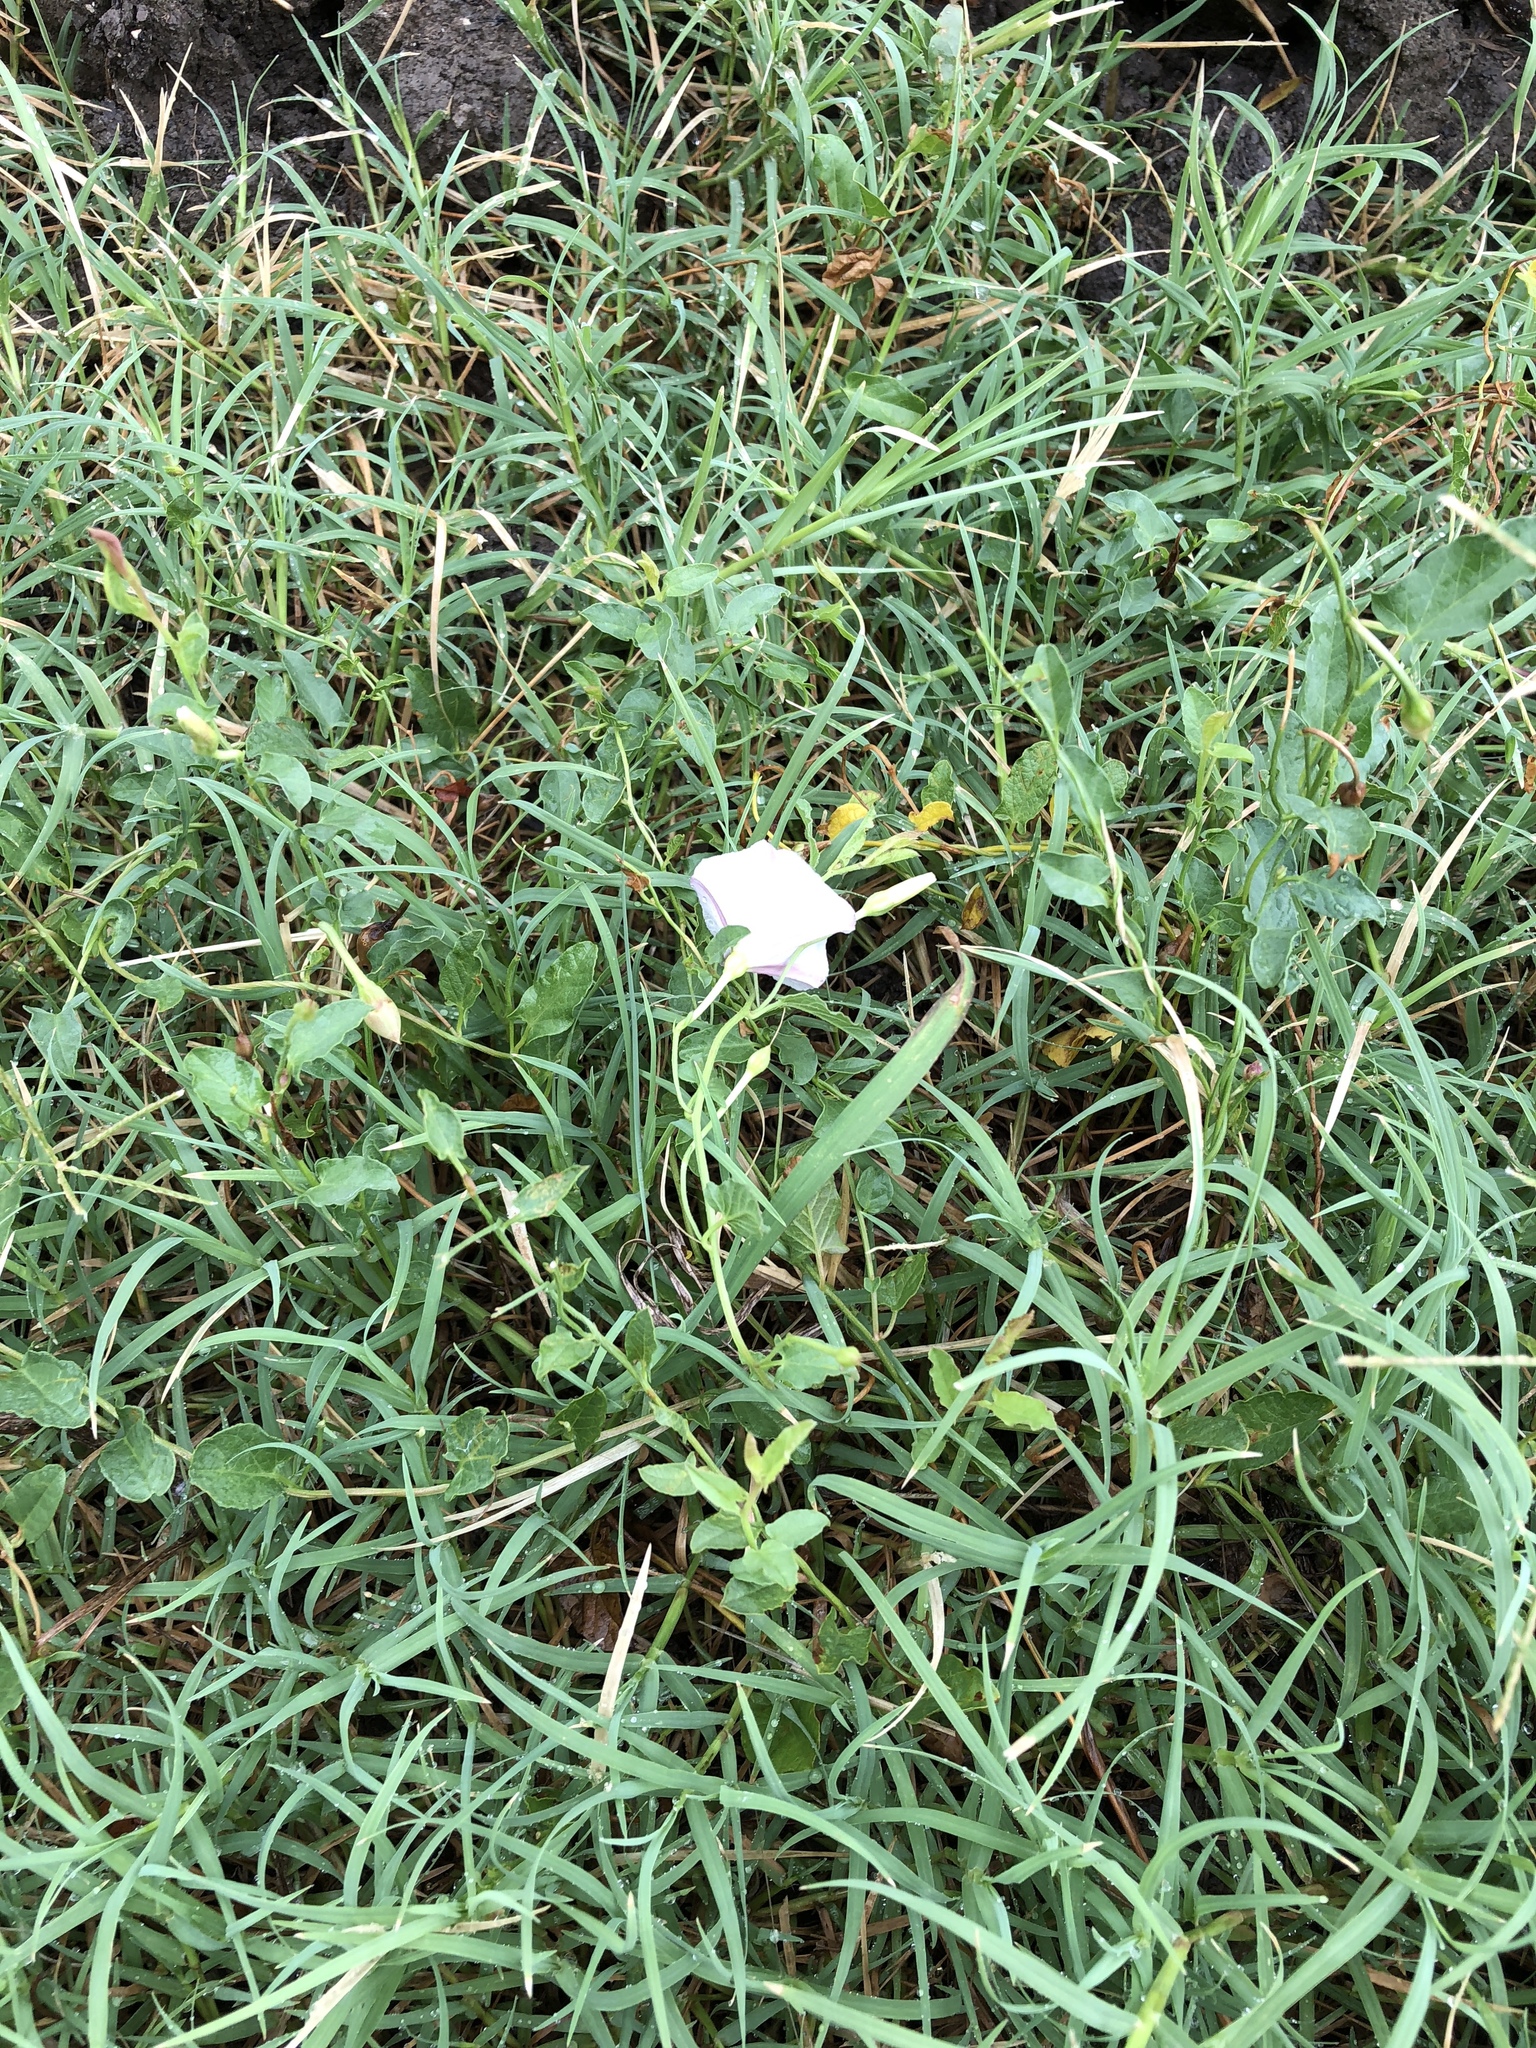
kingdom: Plantae
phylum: Tracheophyta
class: Magnoliopsida
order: Solanales
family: Convolvulaceae
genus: Convolvulus
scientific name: Convolvulus arvensis
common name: Field bindweed
